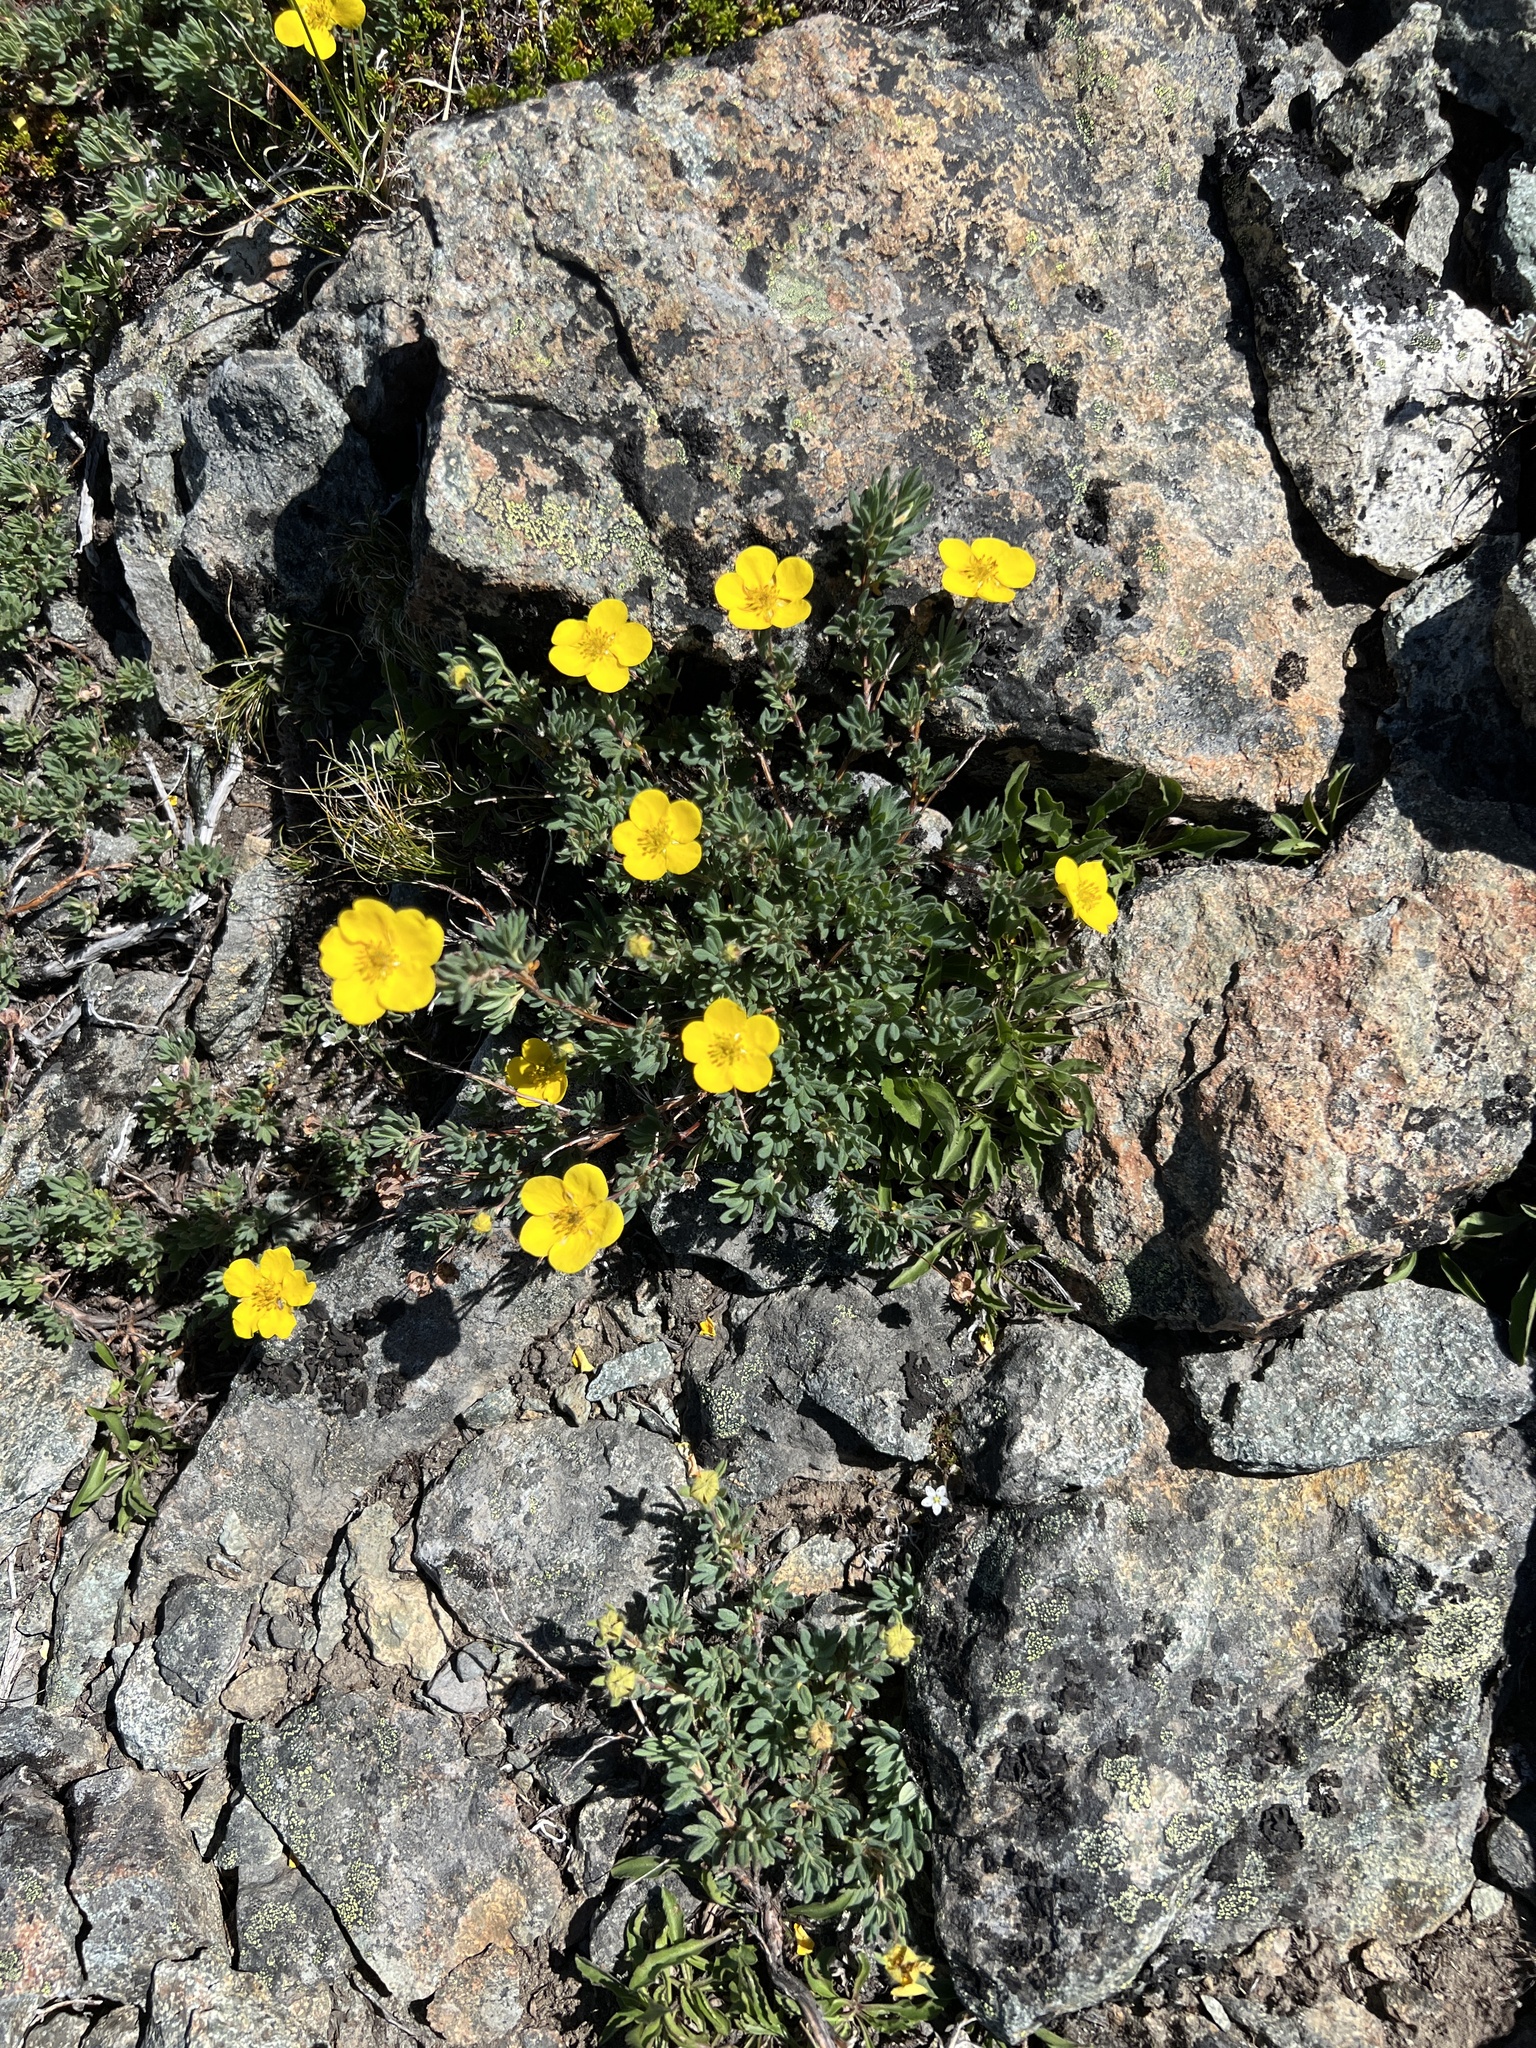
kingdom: Plantae
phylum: Tracheophyta
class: Magnoliopsida
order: Rosales
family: Rosaceae
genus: Dasiphora
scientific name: Dasiphora fruticosa
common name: Shrubby cinquefoil
